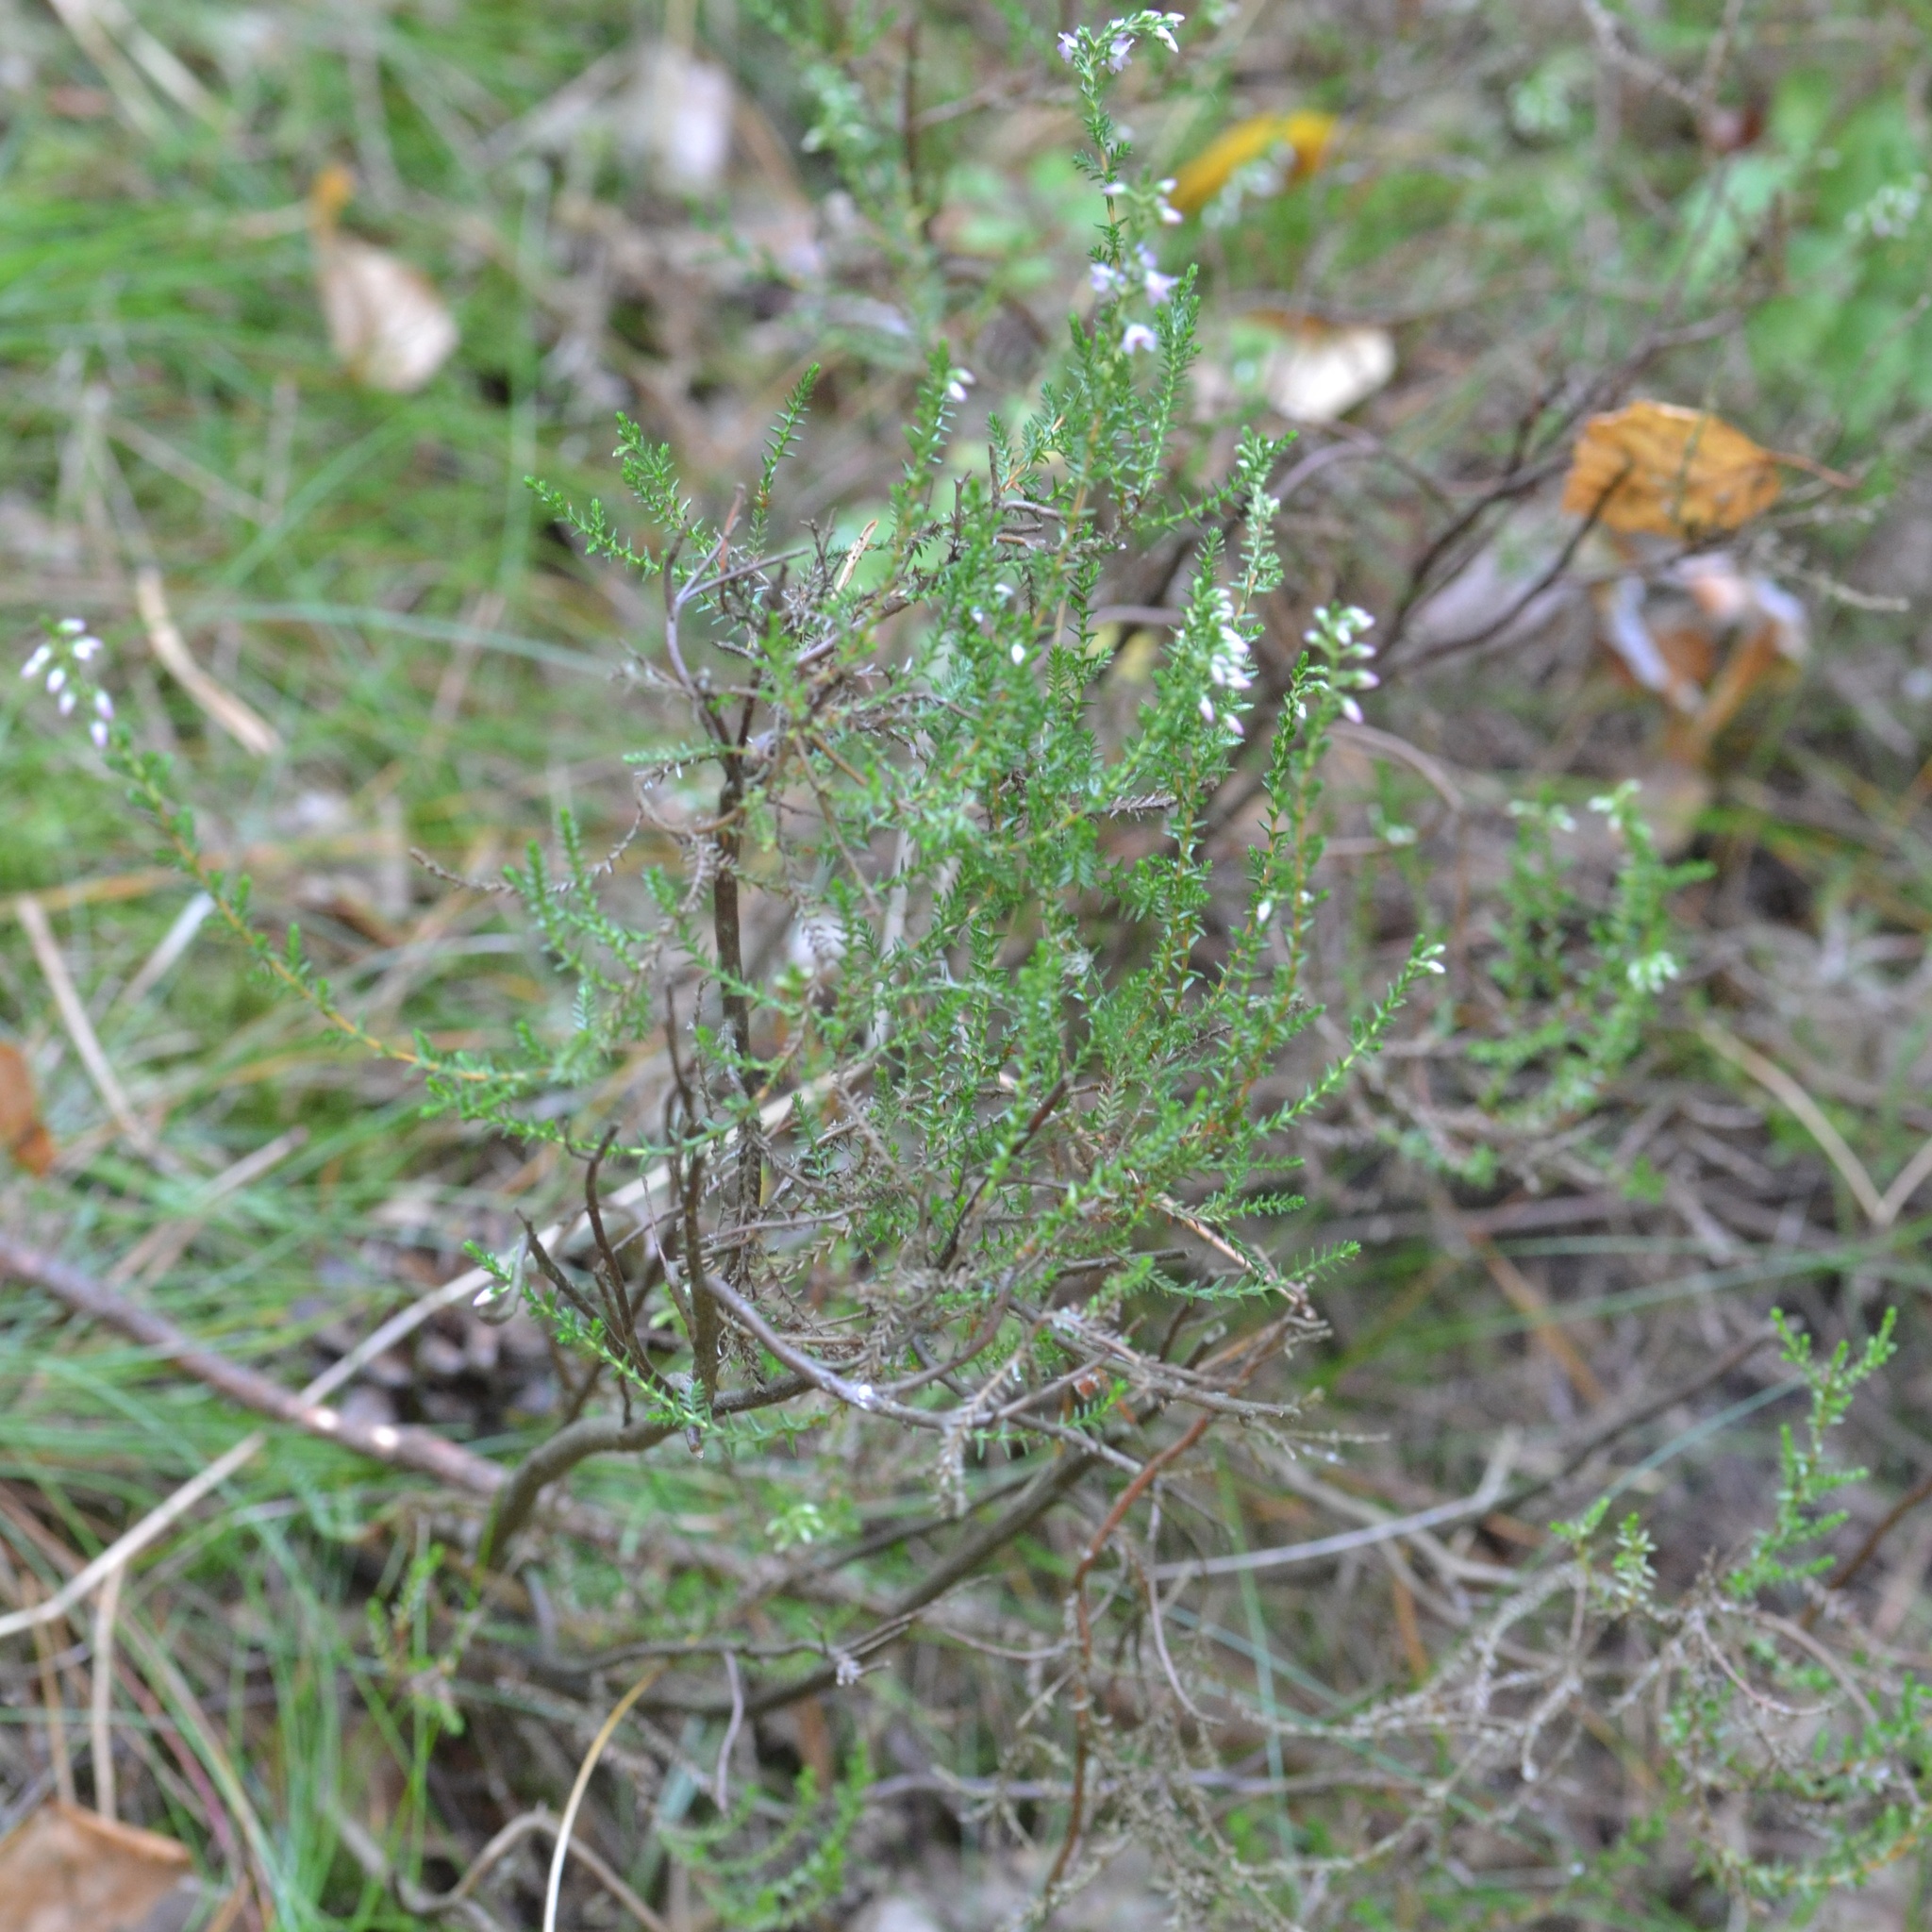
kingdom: Plantae
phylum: Tracheophyta
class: Magnoliopsida
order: Ericales
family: Ericaceae
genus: Calluna
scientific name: Calluna vulgaris
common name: Heather
